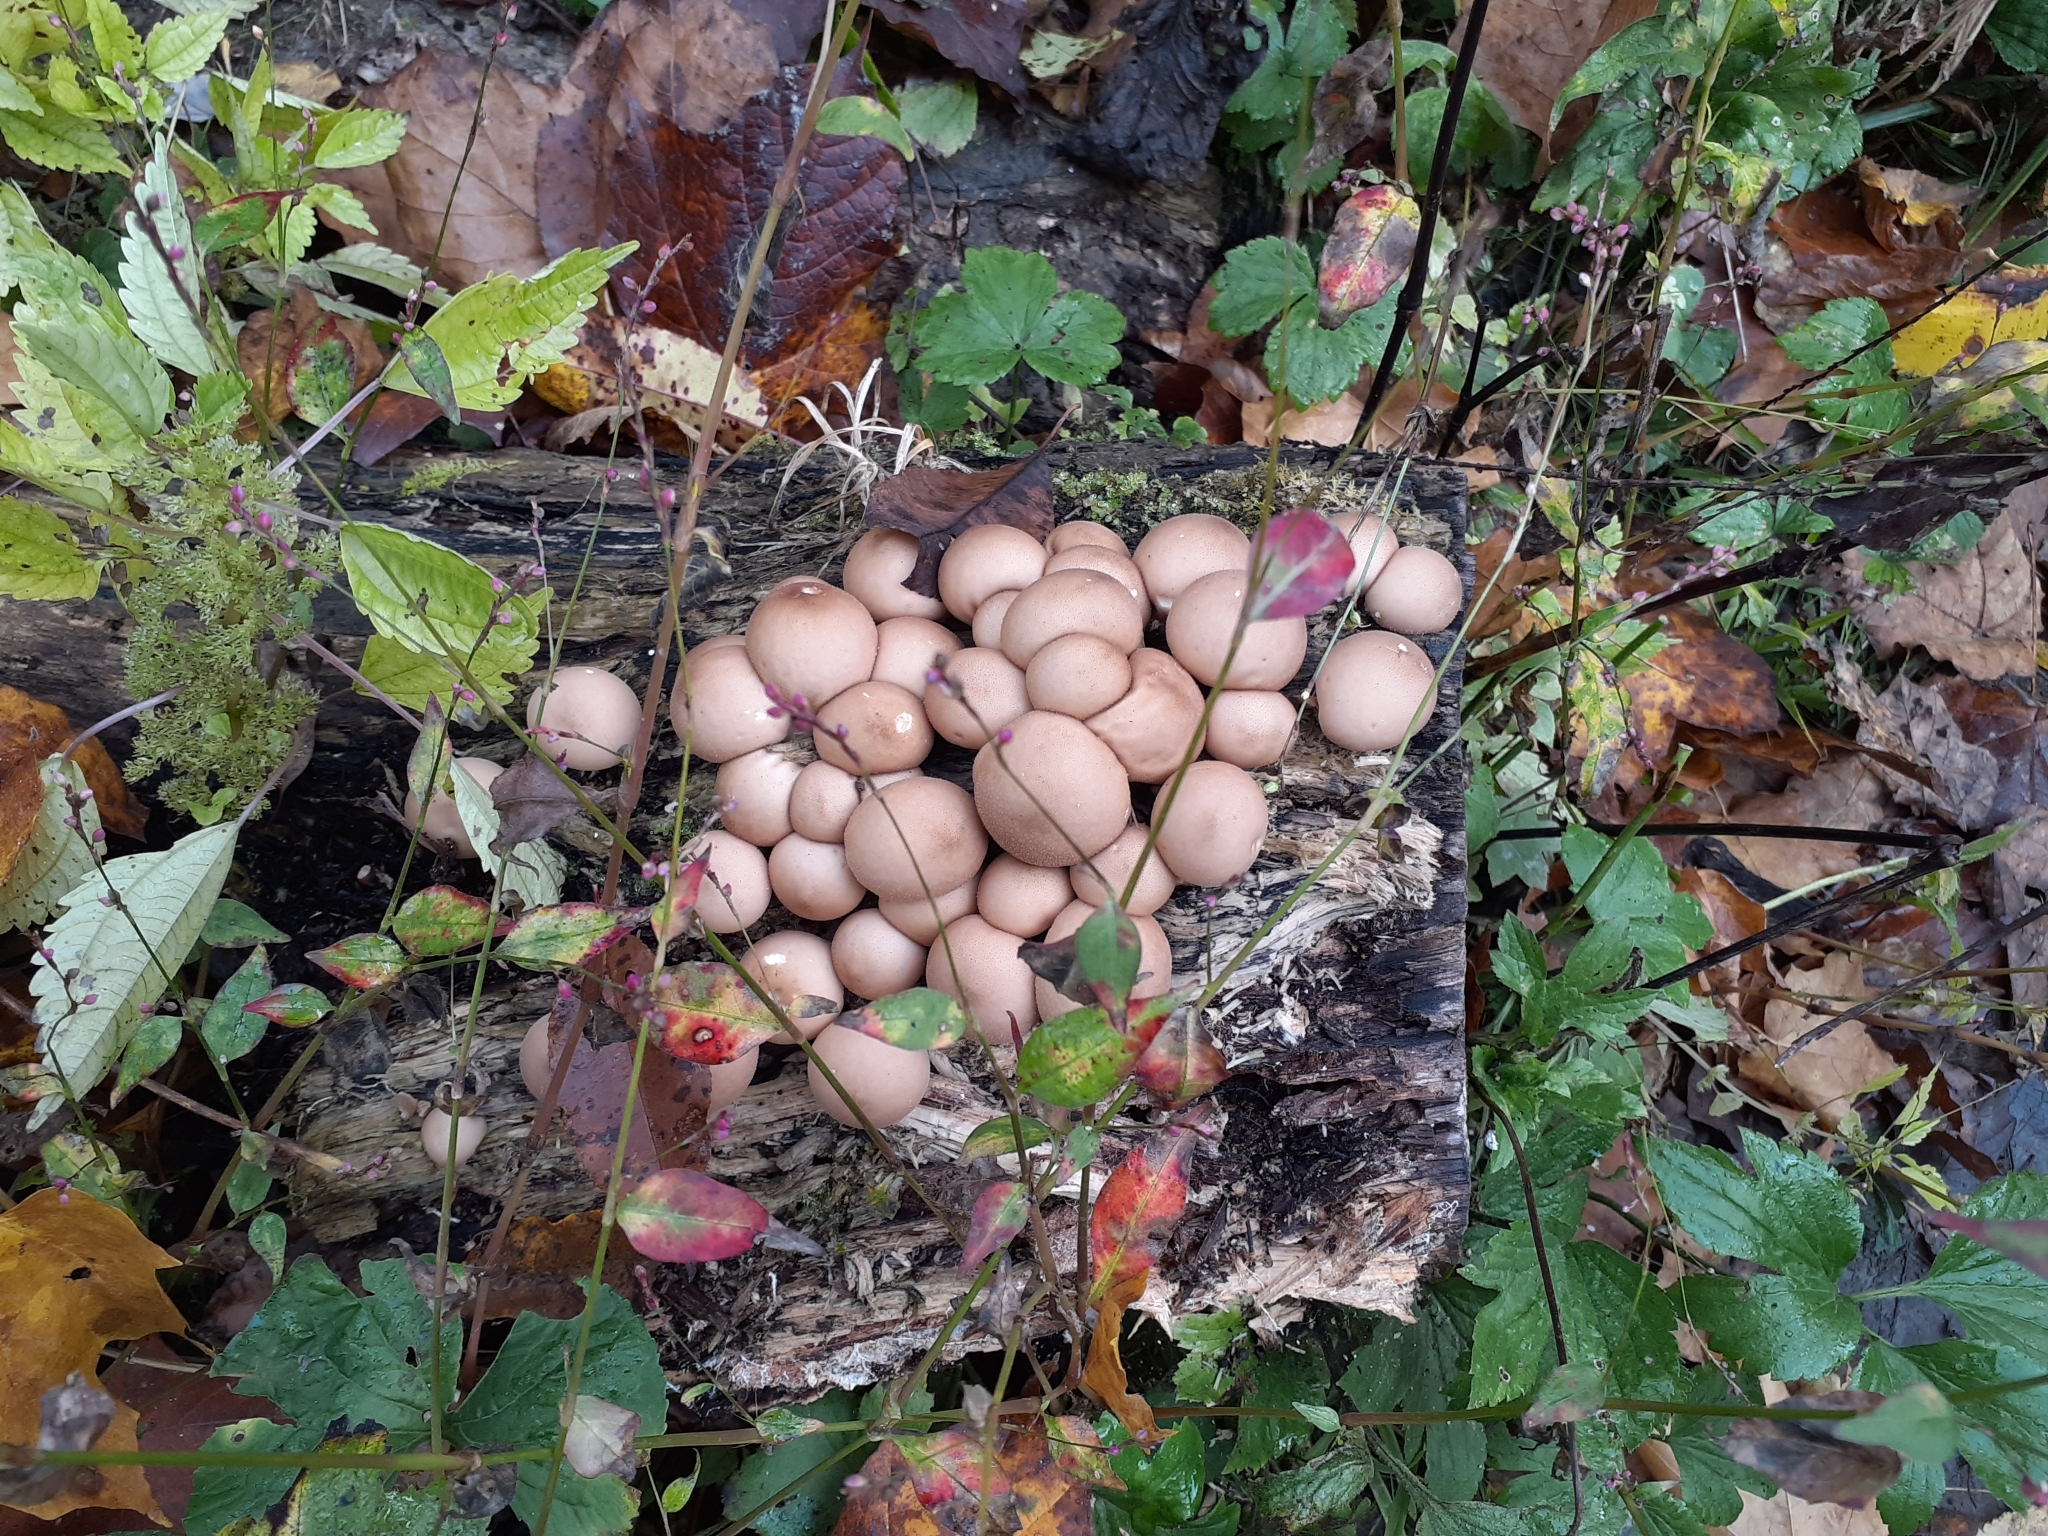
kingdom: Fungi
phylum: Basidiomycota
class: Agaricomycetes
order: Agaricales
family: Lycoperdaceae
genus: Apioperdon
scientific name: Apioperdon pyriforme
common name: Pear-shaped puffball
